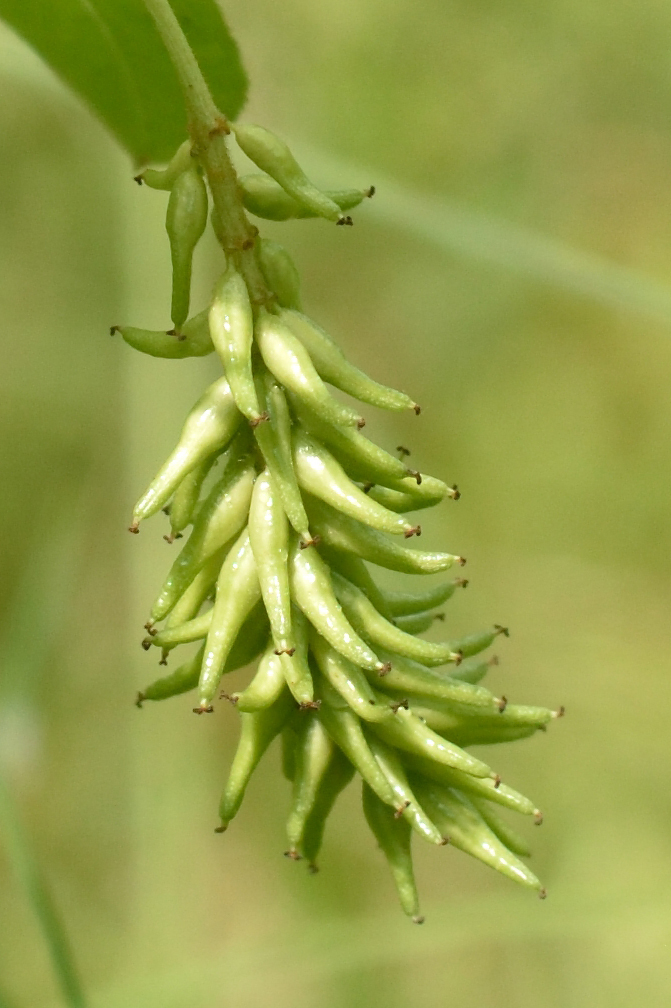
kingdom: Plantae
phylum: Tracheophyta
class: Magnoliopsida
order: Malpighiales
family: Salicaceae
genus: Salix
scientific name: Salix pentandra
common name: Bay willow
